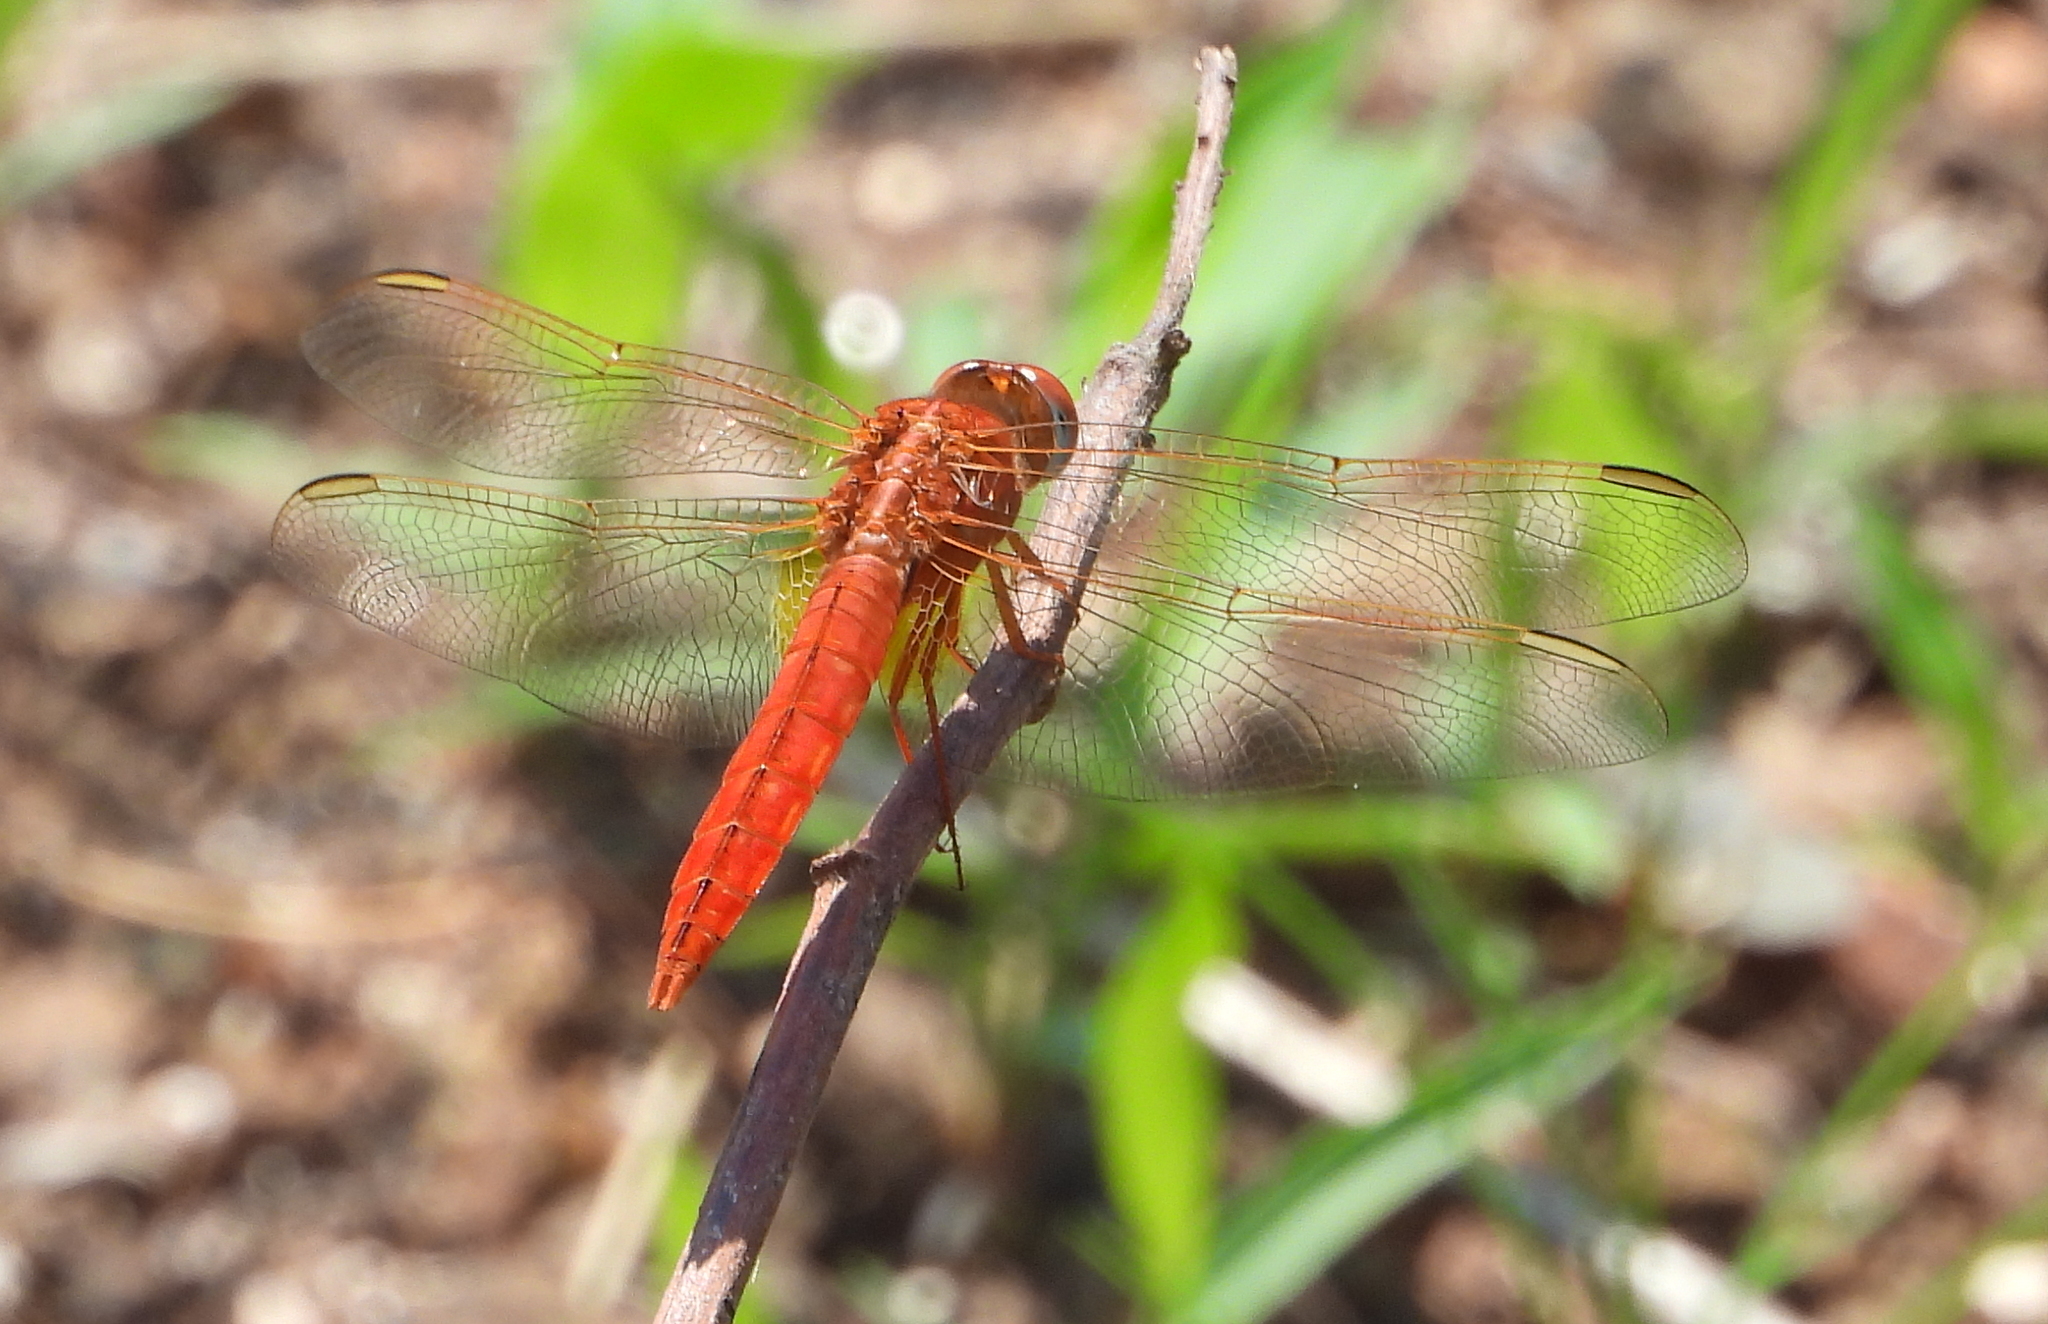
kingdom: Animalia
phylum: Arthropoda
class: Insecta
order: Odonata
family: Libellulidae
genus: Crocothemis
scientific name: Crocothemis erythraea
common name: Scarlet dragonfly
